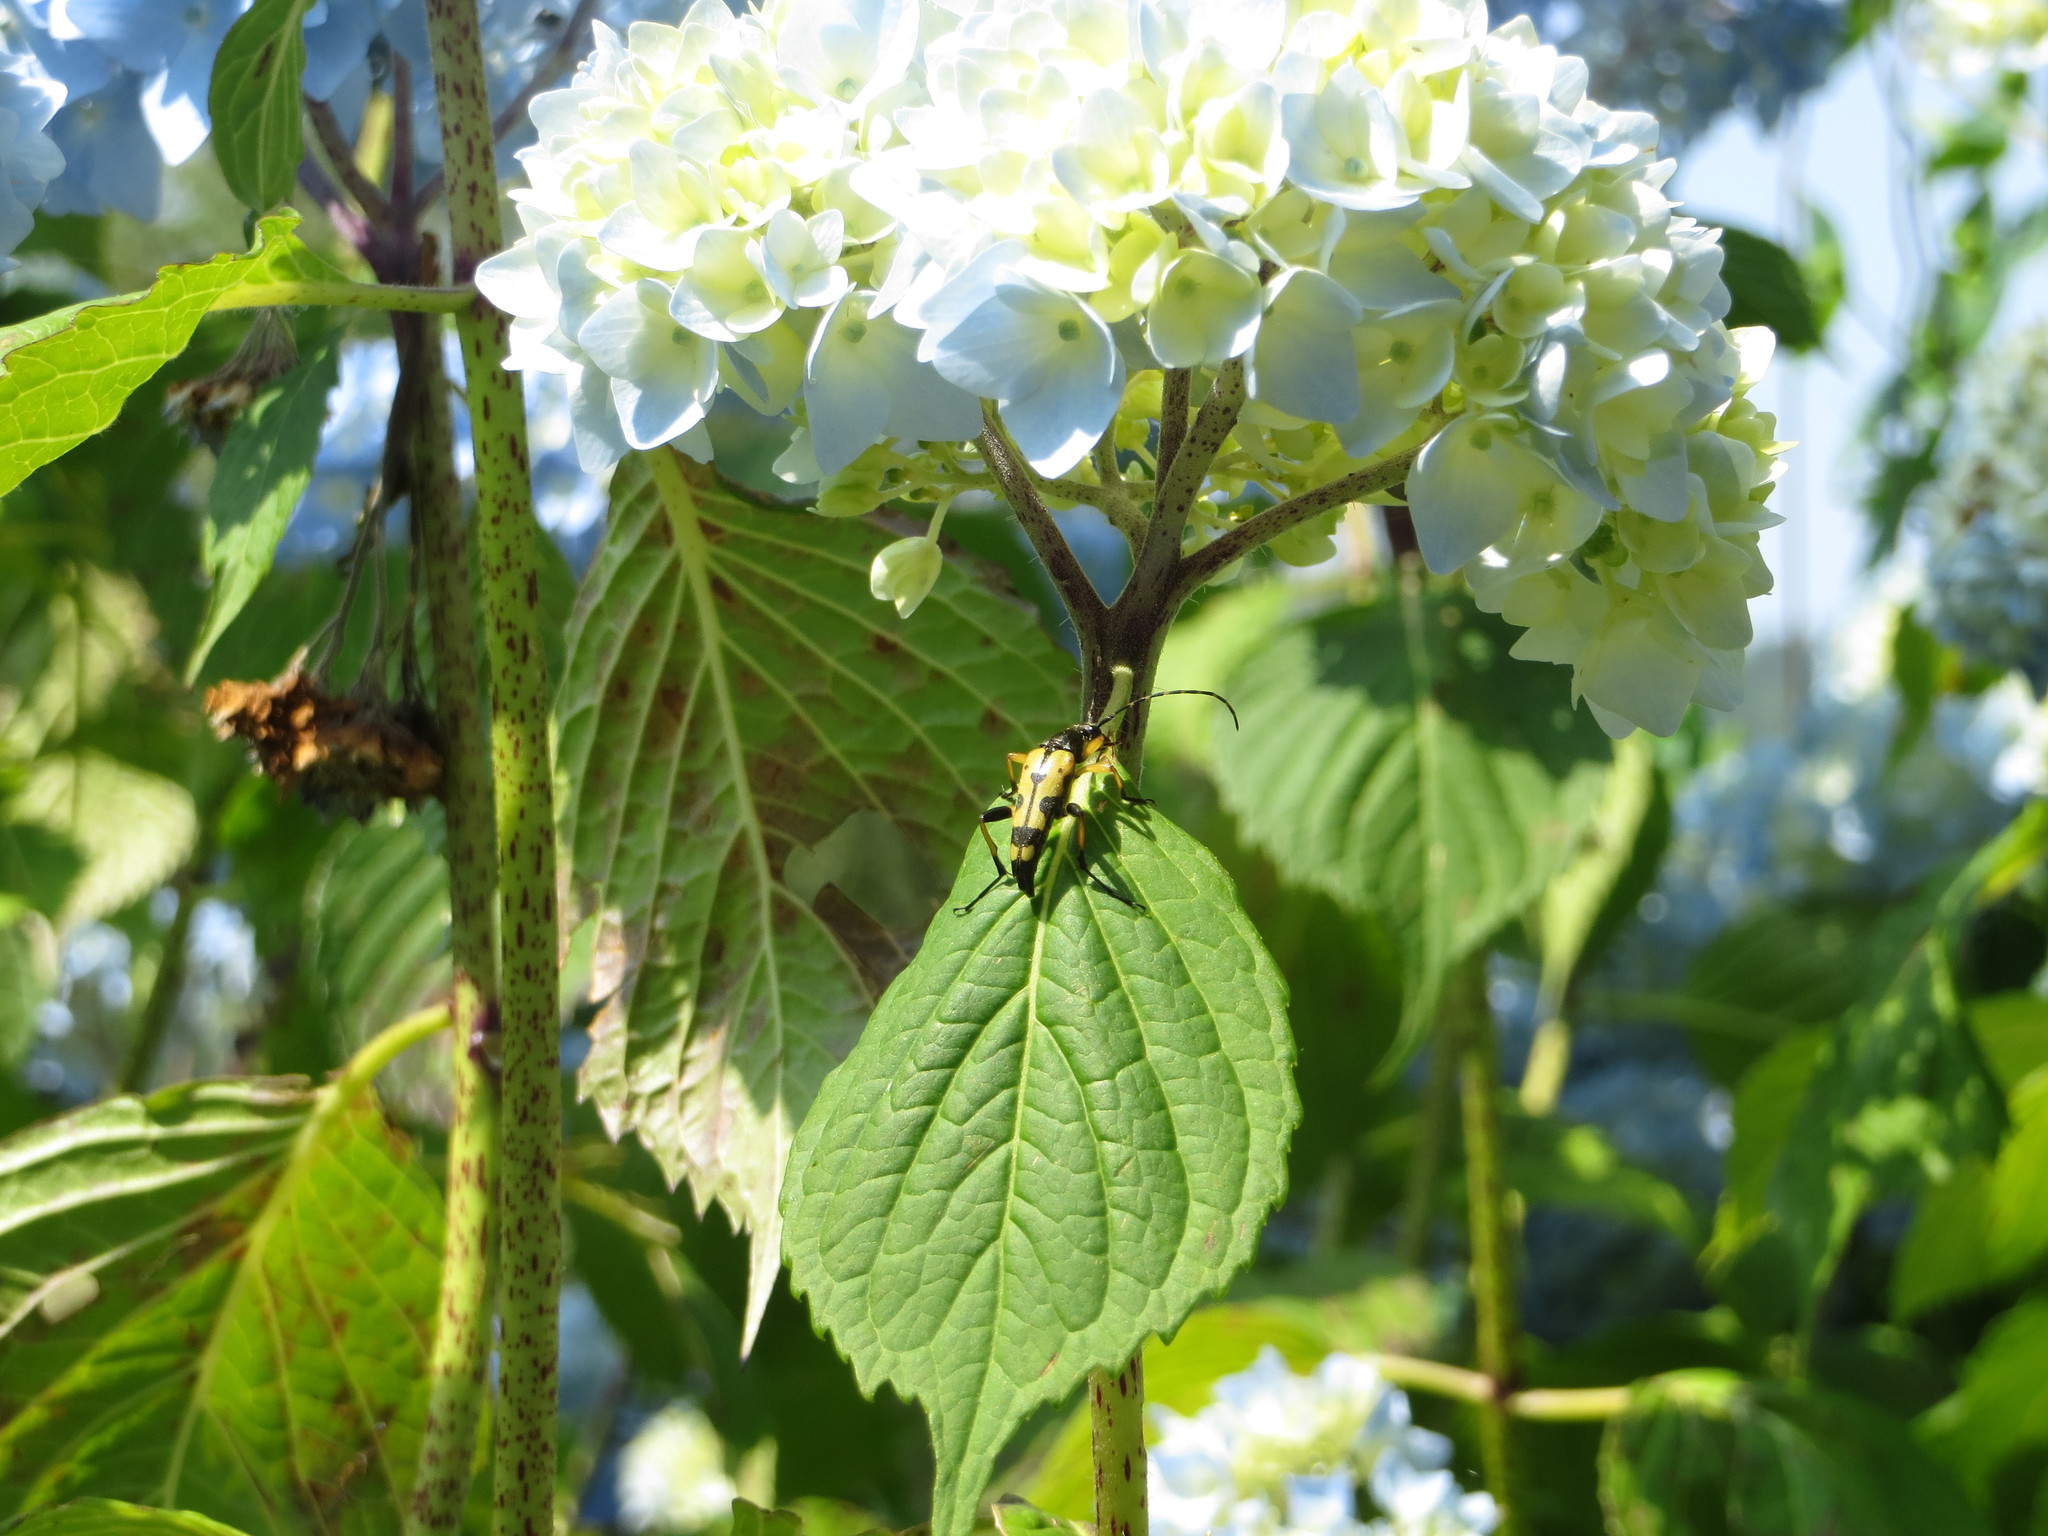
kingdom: Animalia
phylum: Arthropoda
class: Insecta
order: Coleoptera
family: Cerambycidae
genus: Rutpela
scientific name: Rutpela maculata
